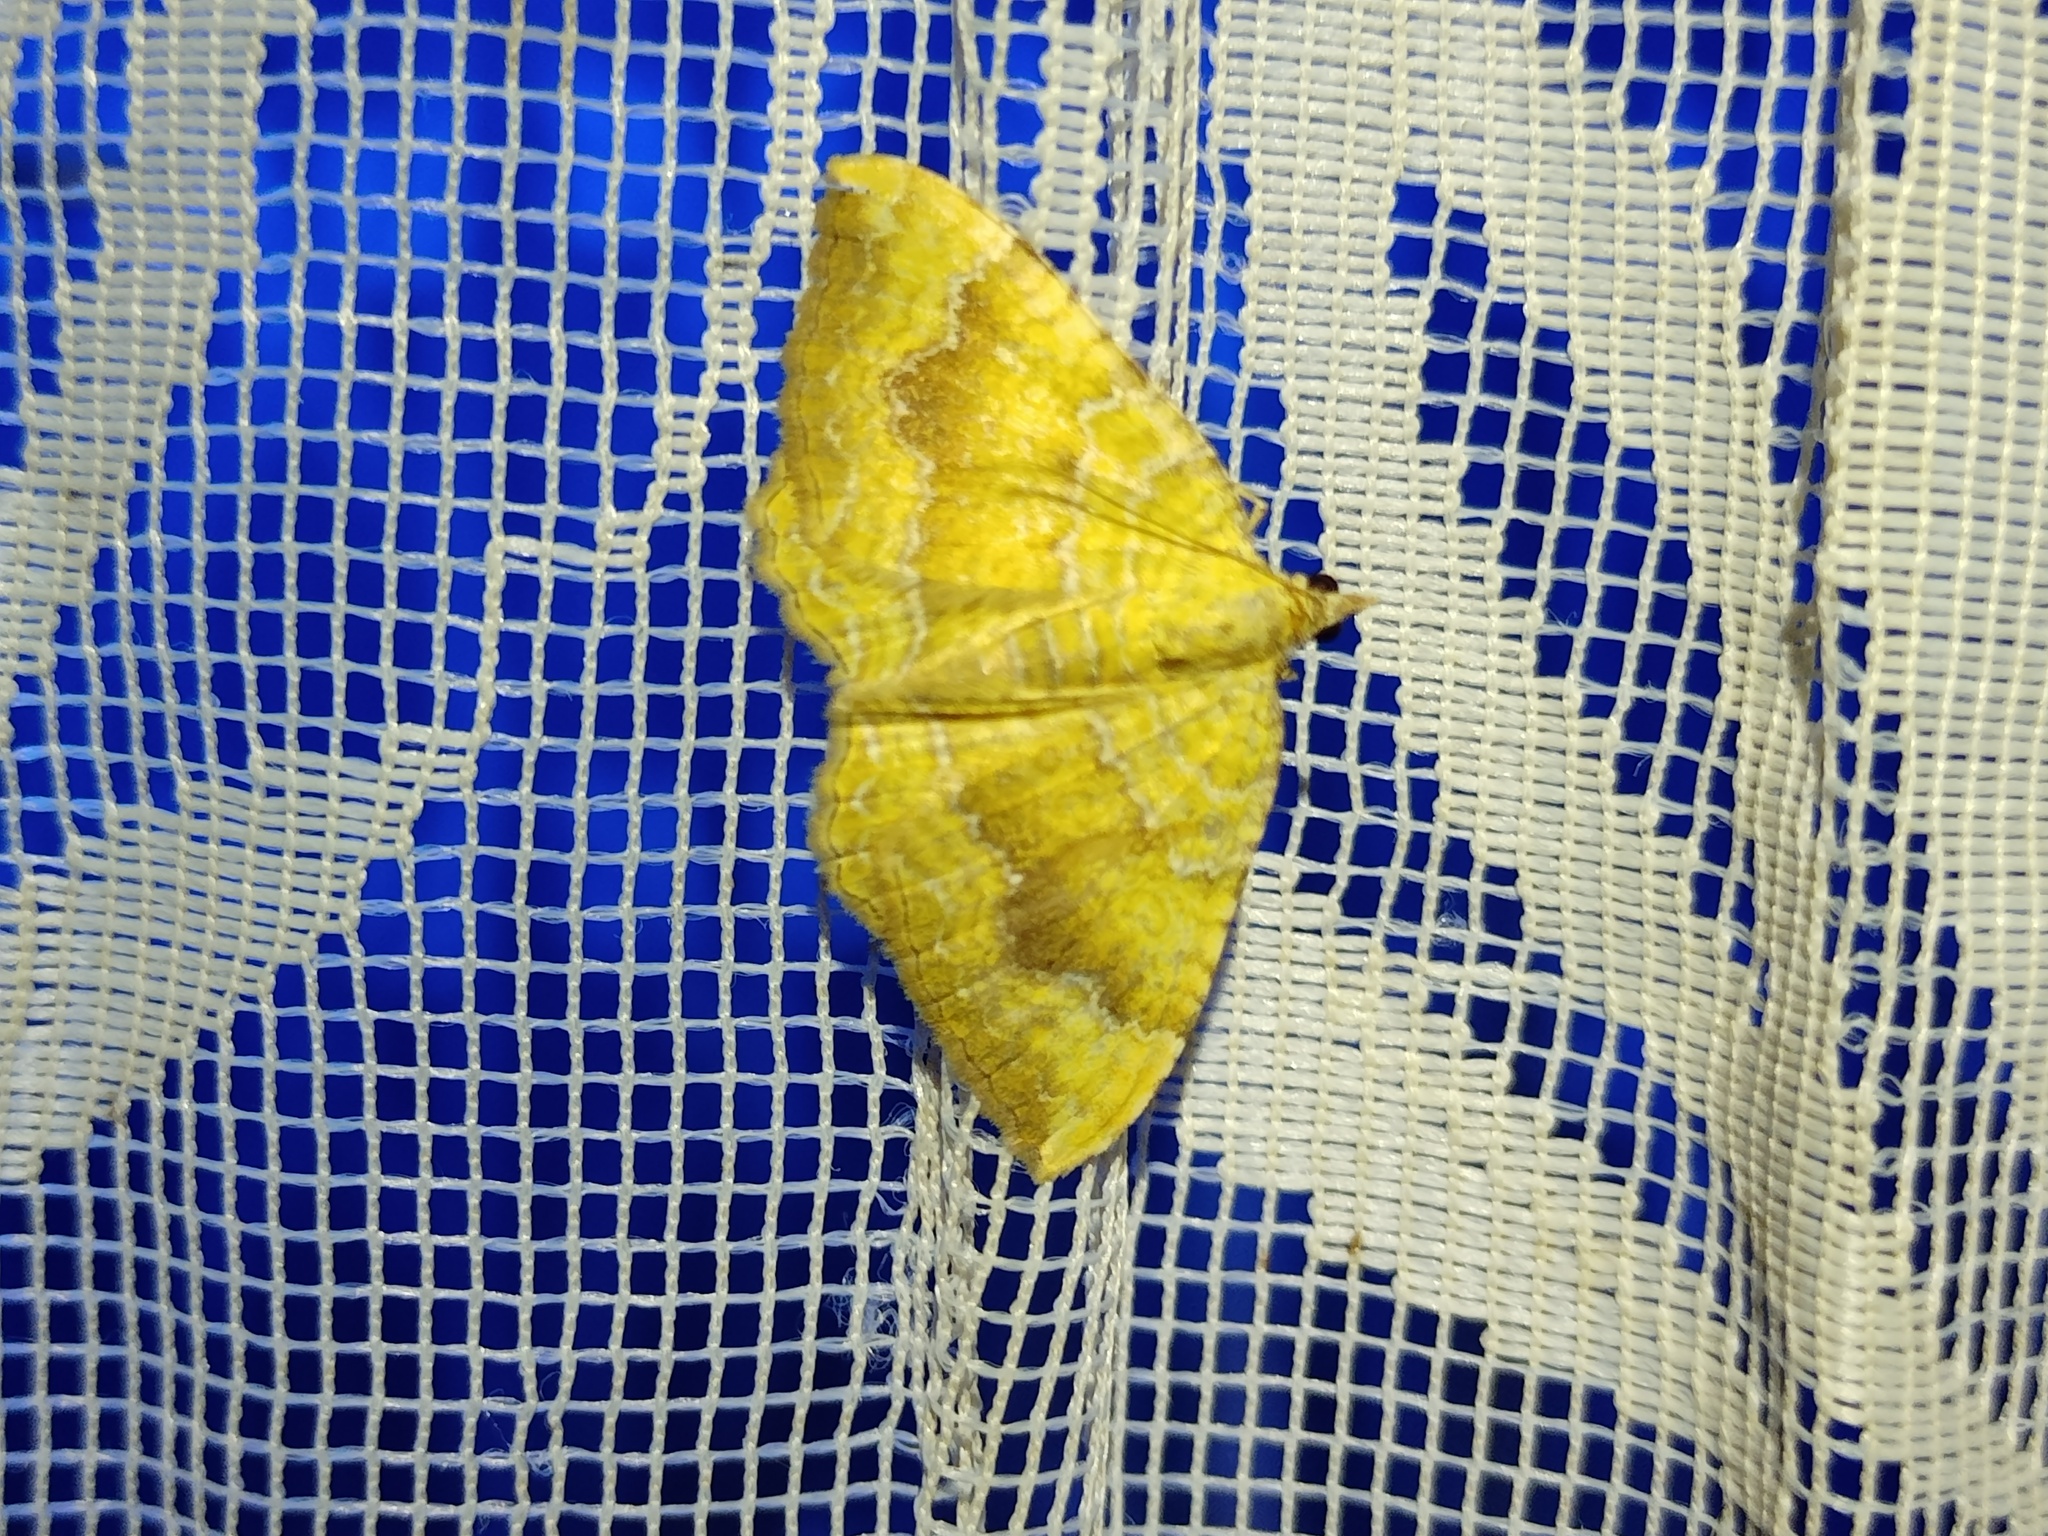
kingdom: Animalia
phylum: Arthropoda
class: Insecta
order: Lepidoptera
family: Geometridae
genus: Camptogramma
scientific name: Camptogramma bilineata
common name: Yellow shell
